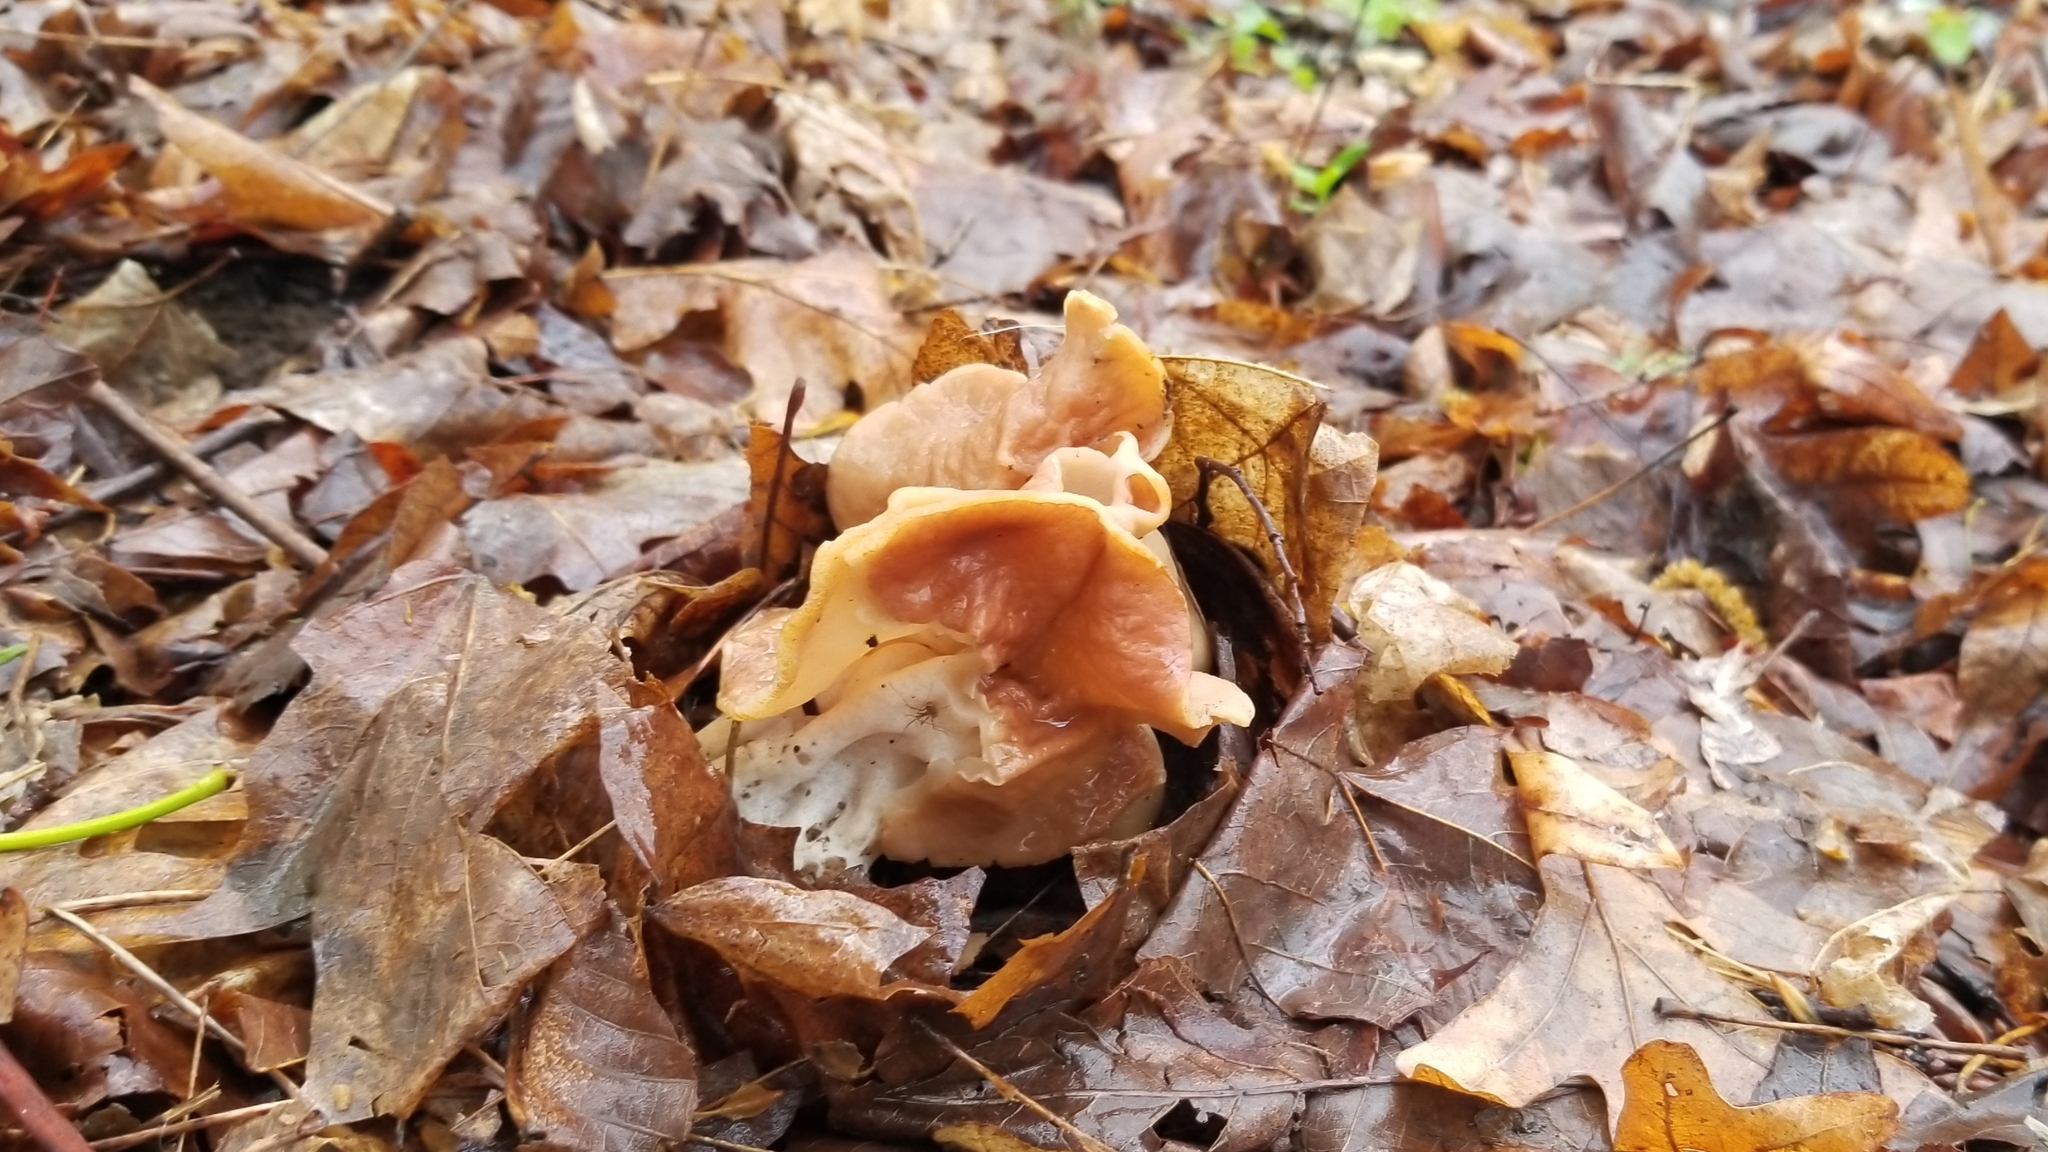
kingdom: Fungi
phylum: Ascomycota
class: Pezizomycetes
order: Pezizales
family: Discinaceae
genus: Discina
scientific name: Discina brunnea
